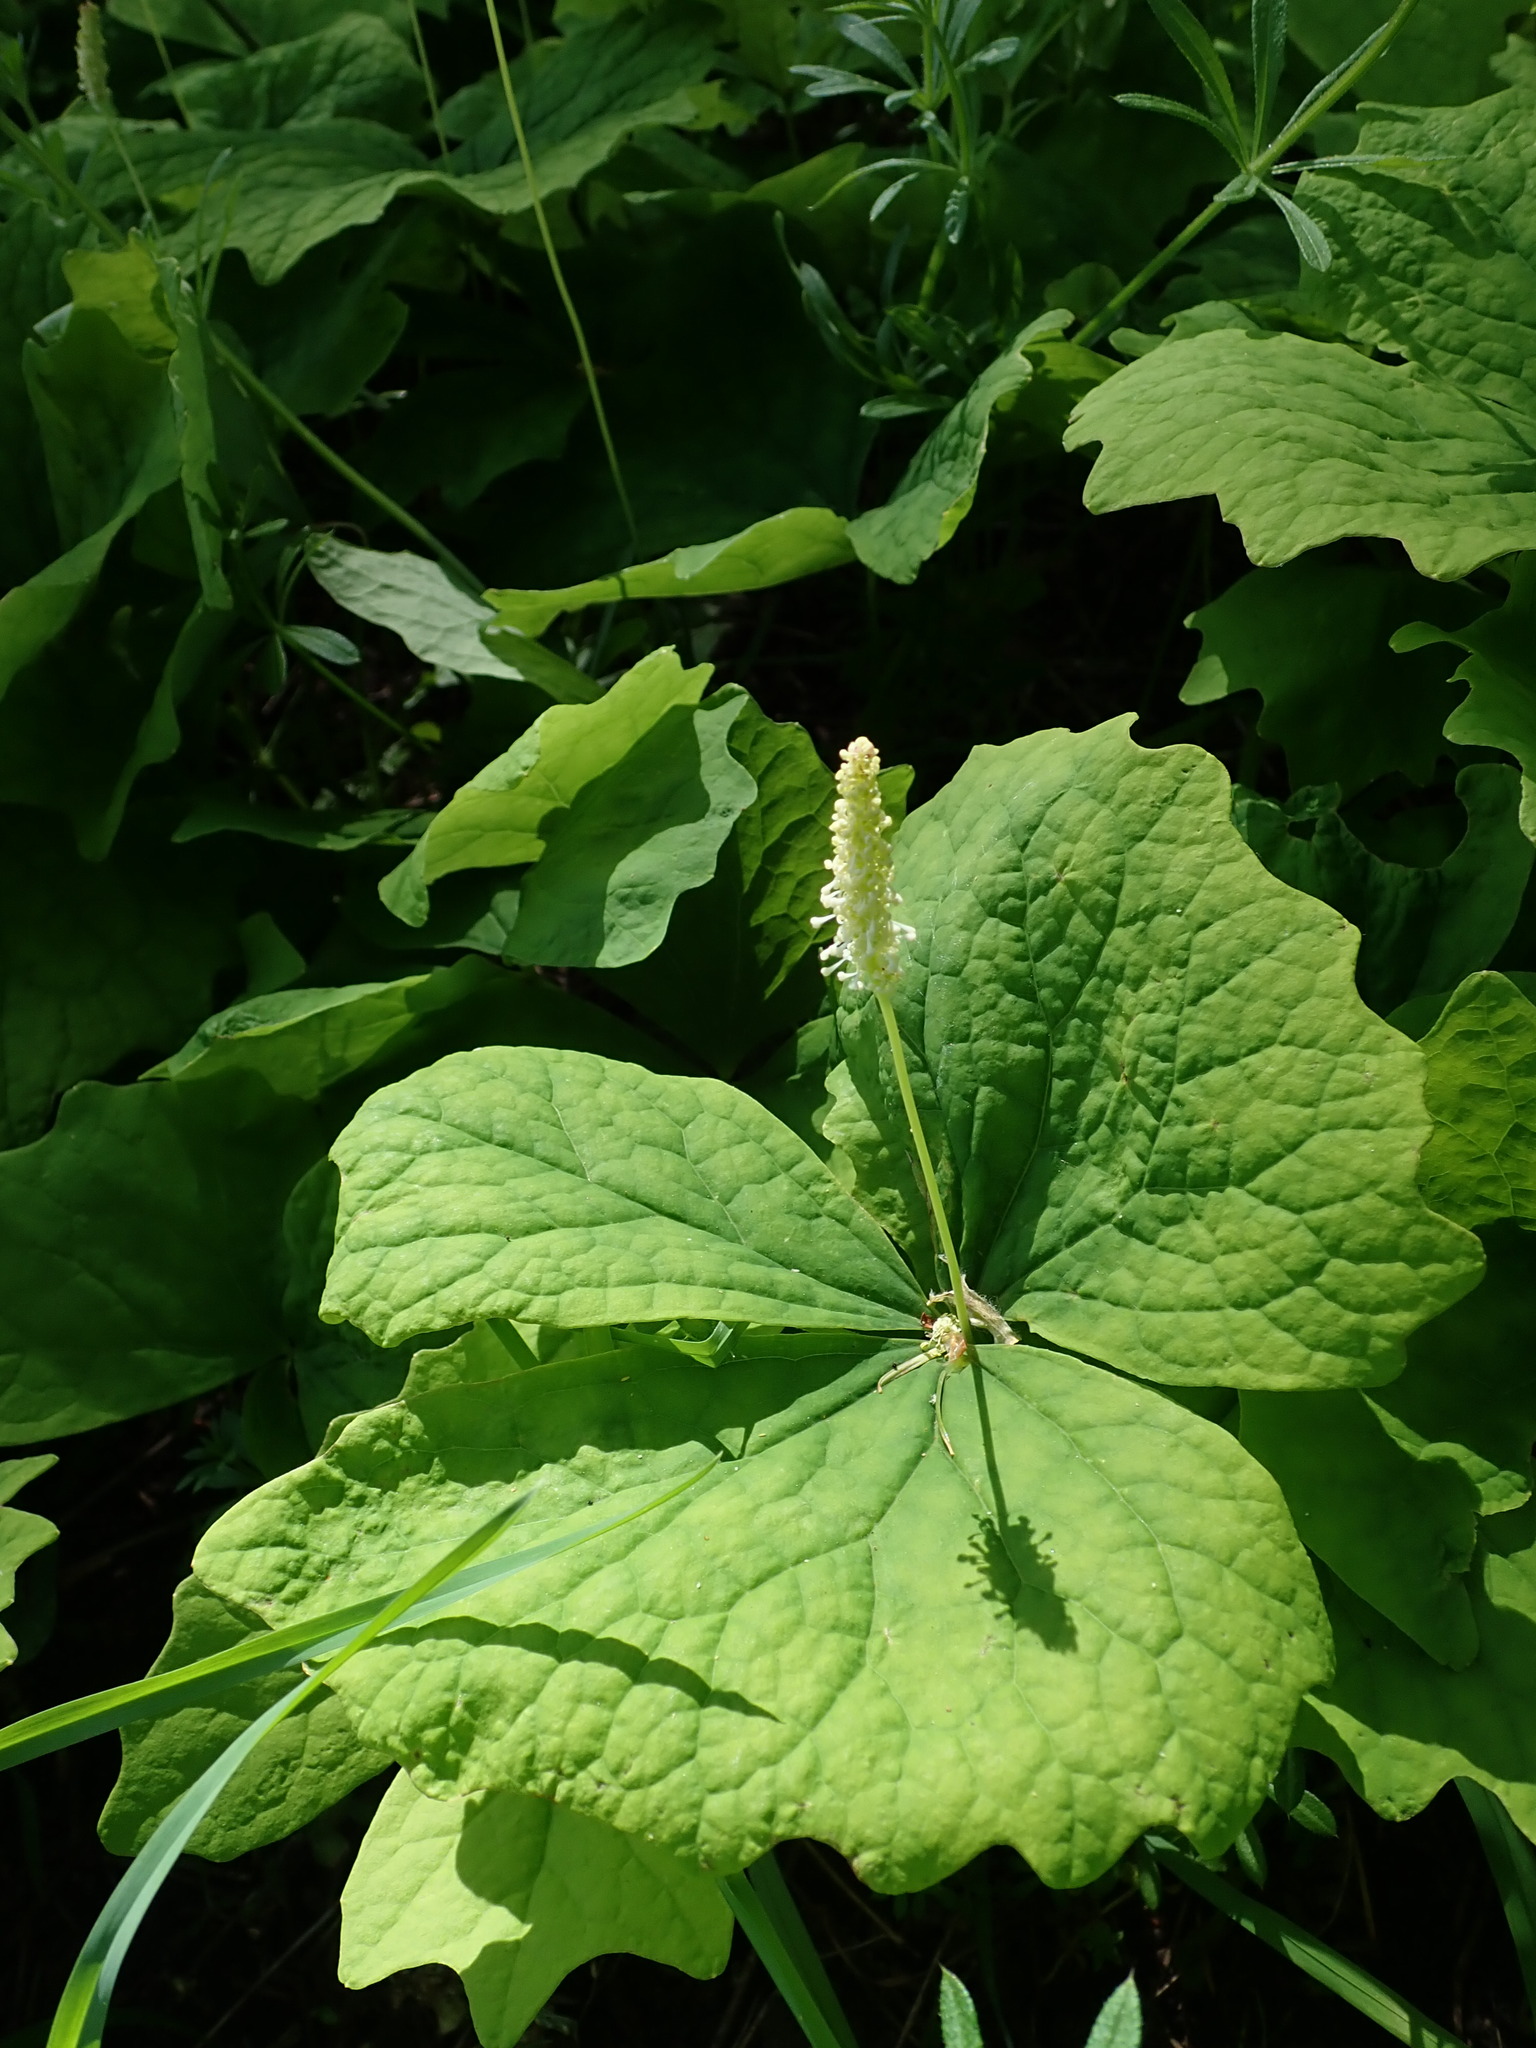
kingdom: Plantae
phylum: Tracheophyta
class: Magnoliopsida
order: Ranunculales
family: Berberidaceae
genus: Achlys
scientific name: Achlys triphylla
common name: Vanilla-leaf
